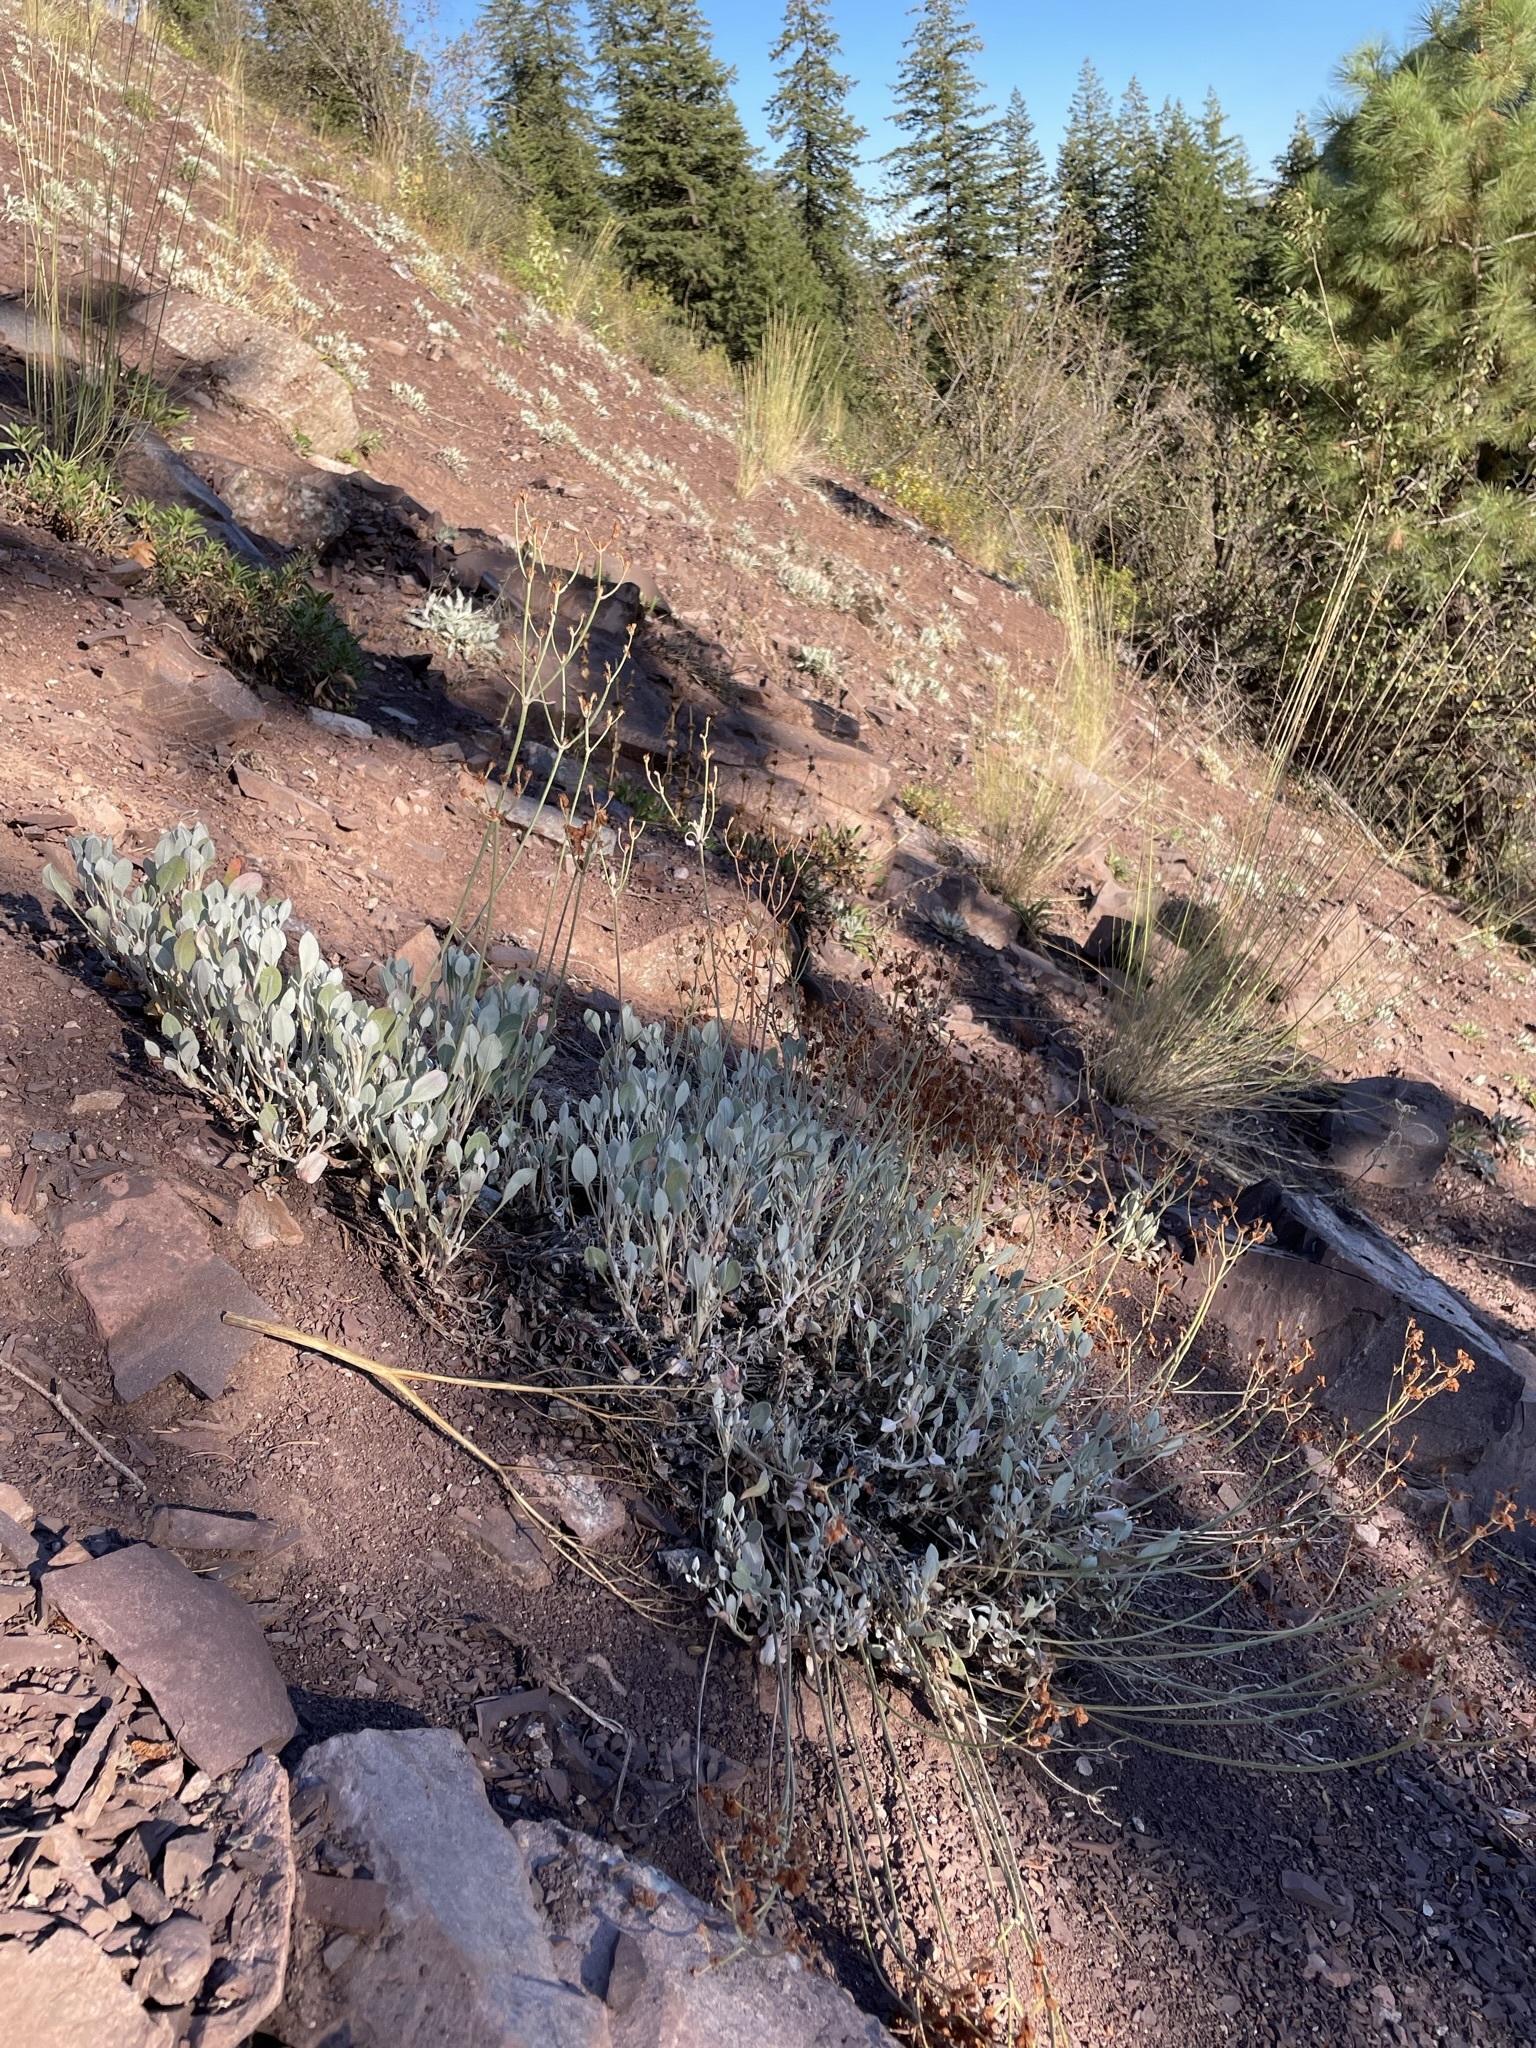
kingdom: Plantae
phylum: Tracheophyta
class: Magnoliopsida
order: Caryophyllales
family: Polygonaceae
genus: Eriogonum
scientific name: Eriogonum niveum
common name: Snow wild buckwheat
